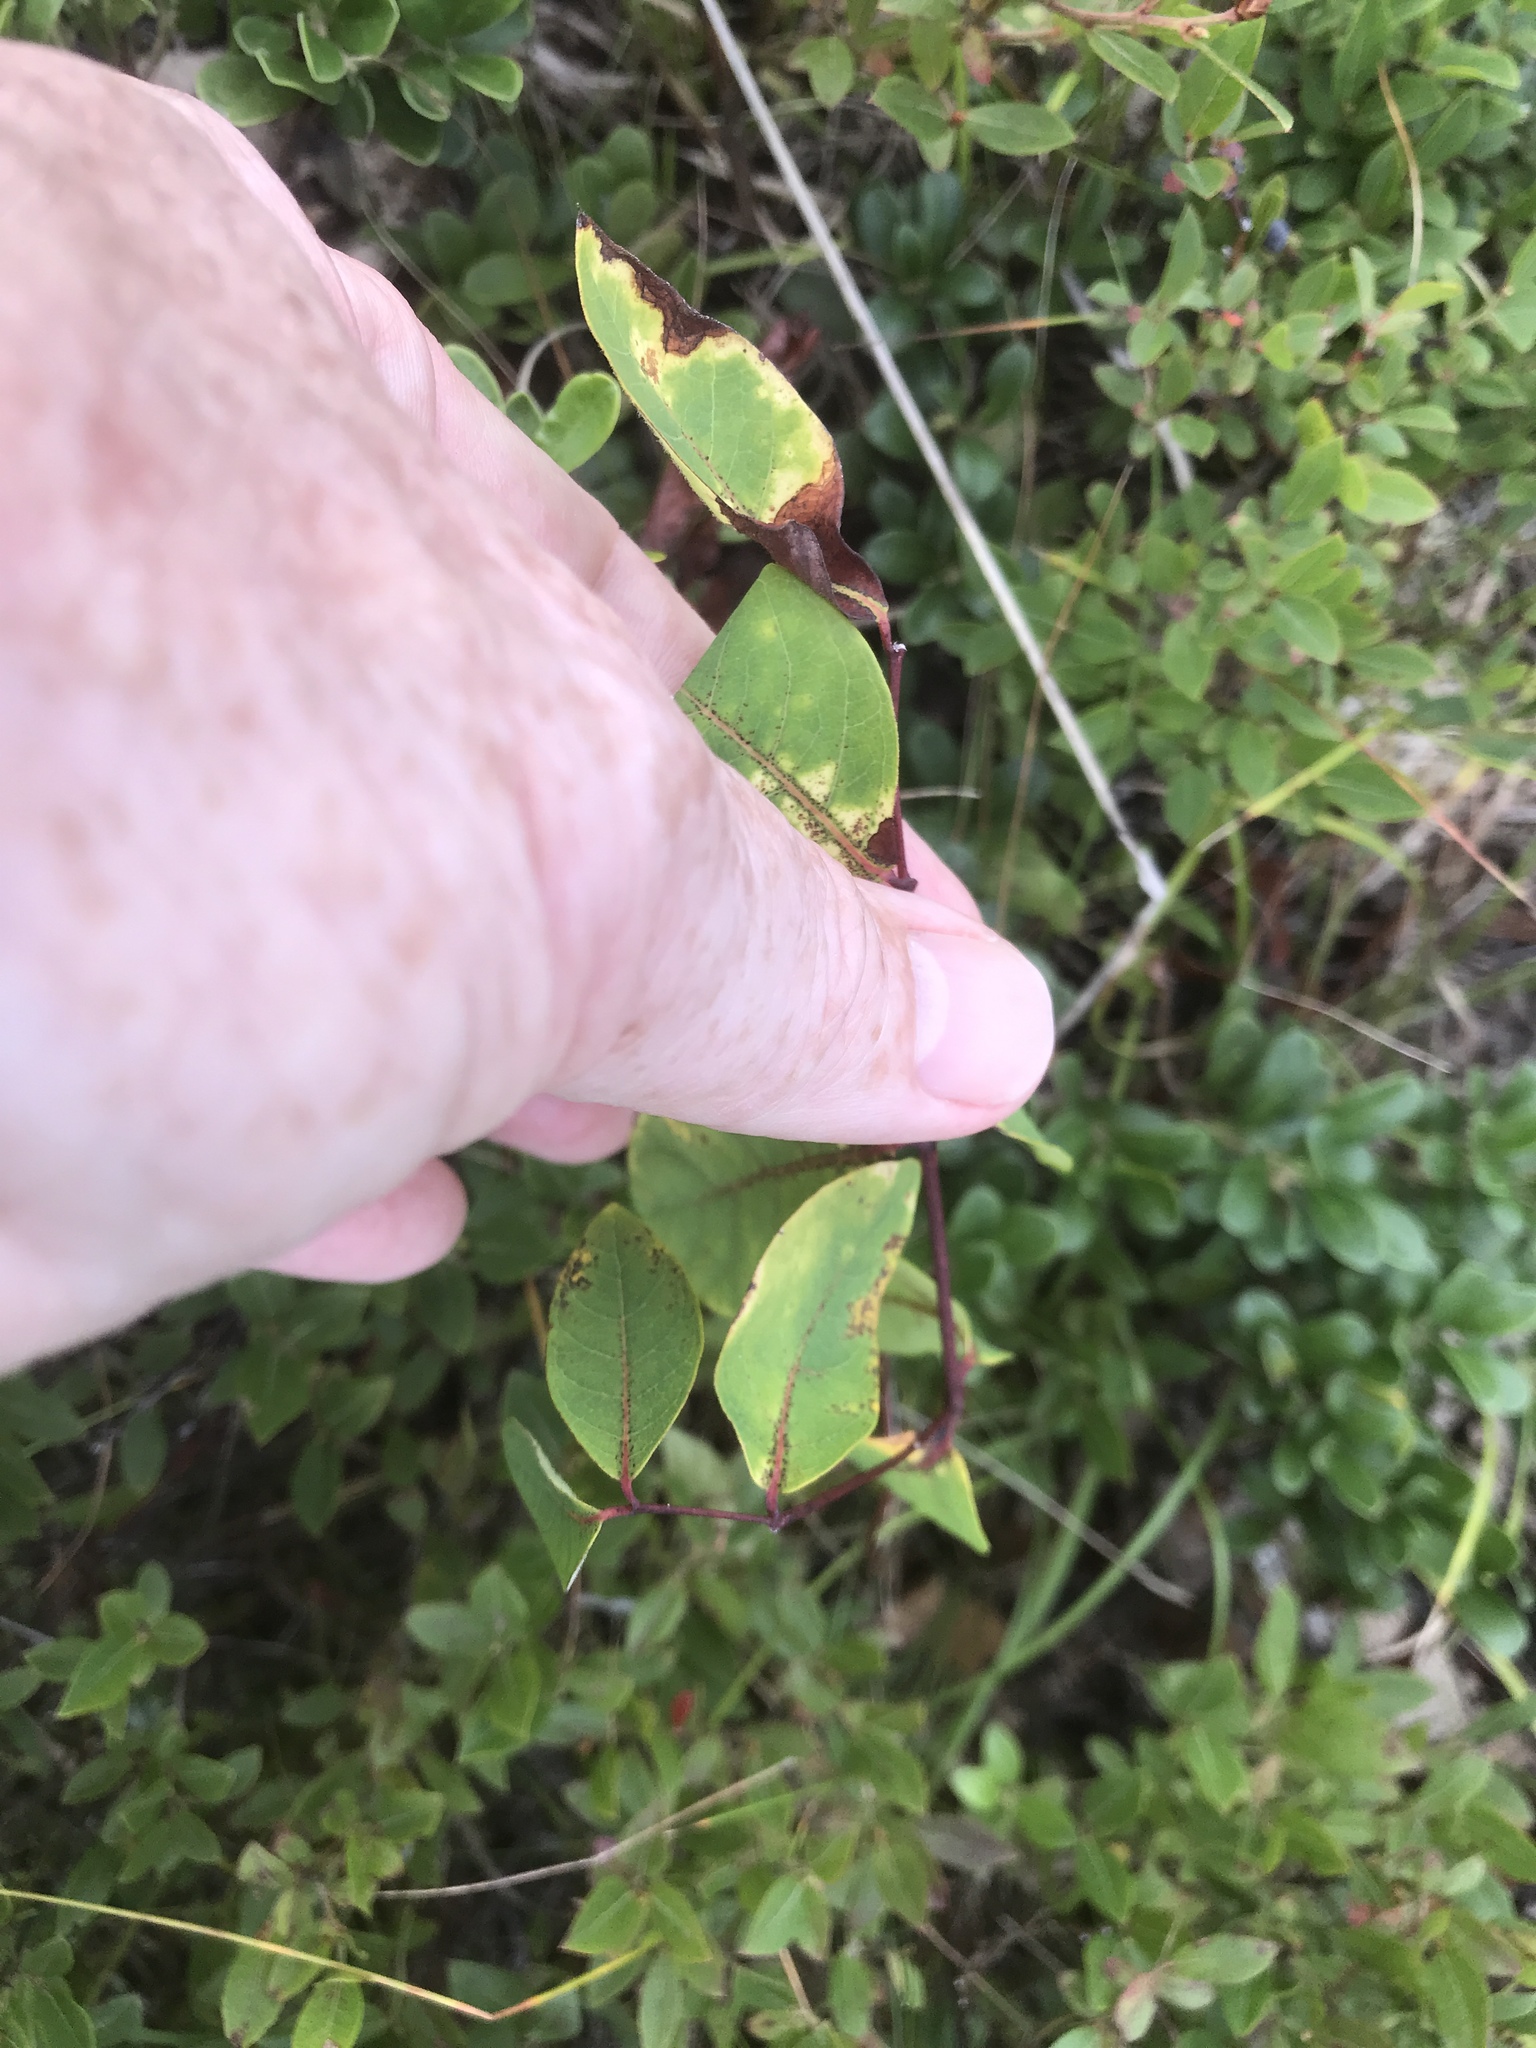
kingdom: Plantae
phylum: Tracheophyta
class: Magnoliopsida
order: Gentianales
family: Apocynaceae
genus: Apocynum
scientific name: Apocynum androsaemifolium
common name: Spreading dogbane
